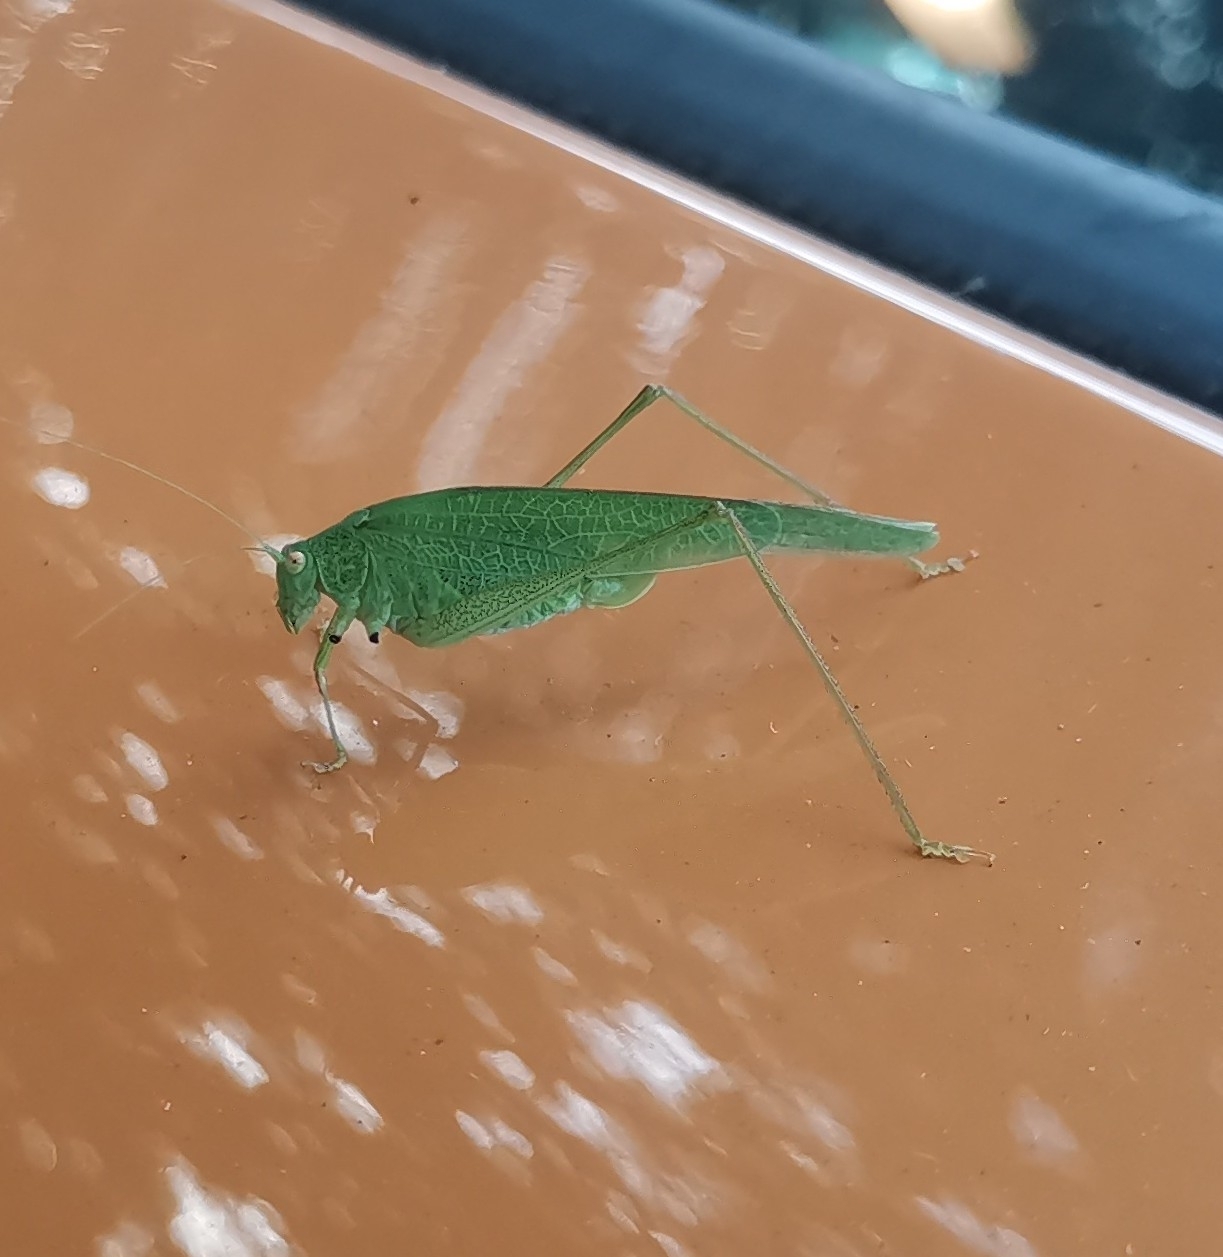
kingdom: Animalia
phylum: Arthropoda
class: Insecta
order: Orthoptera
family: Tettigoniidae
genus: Phaneroptera
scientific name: Phaneroptera nana
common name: Southern sickle bush-cricket
